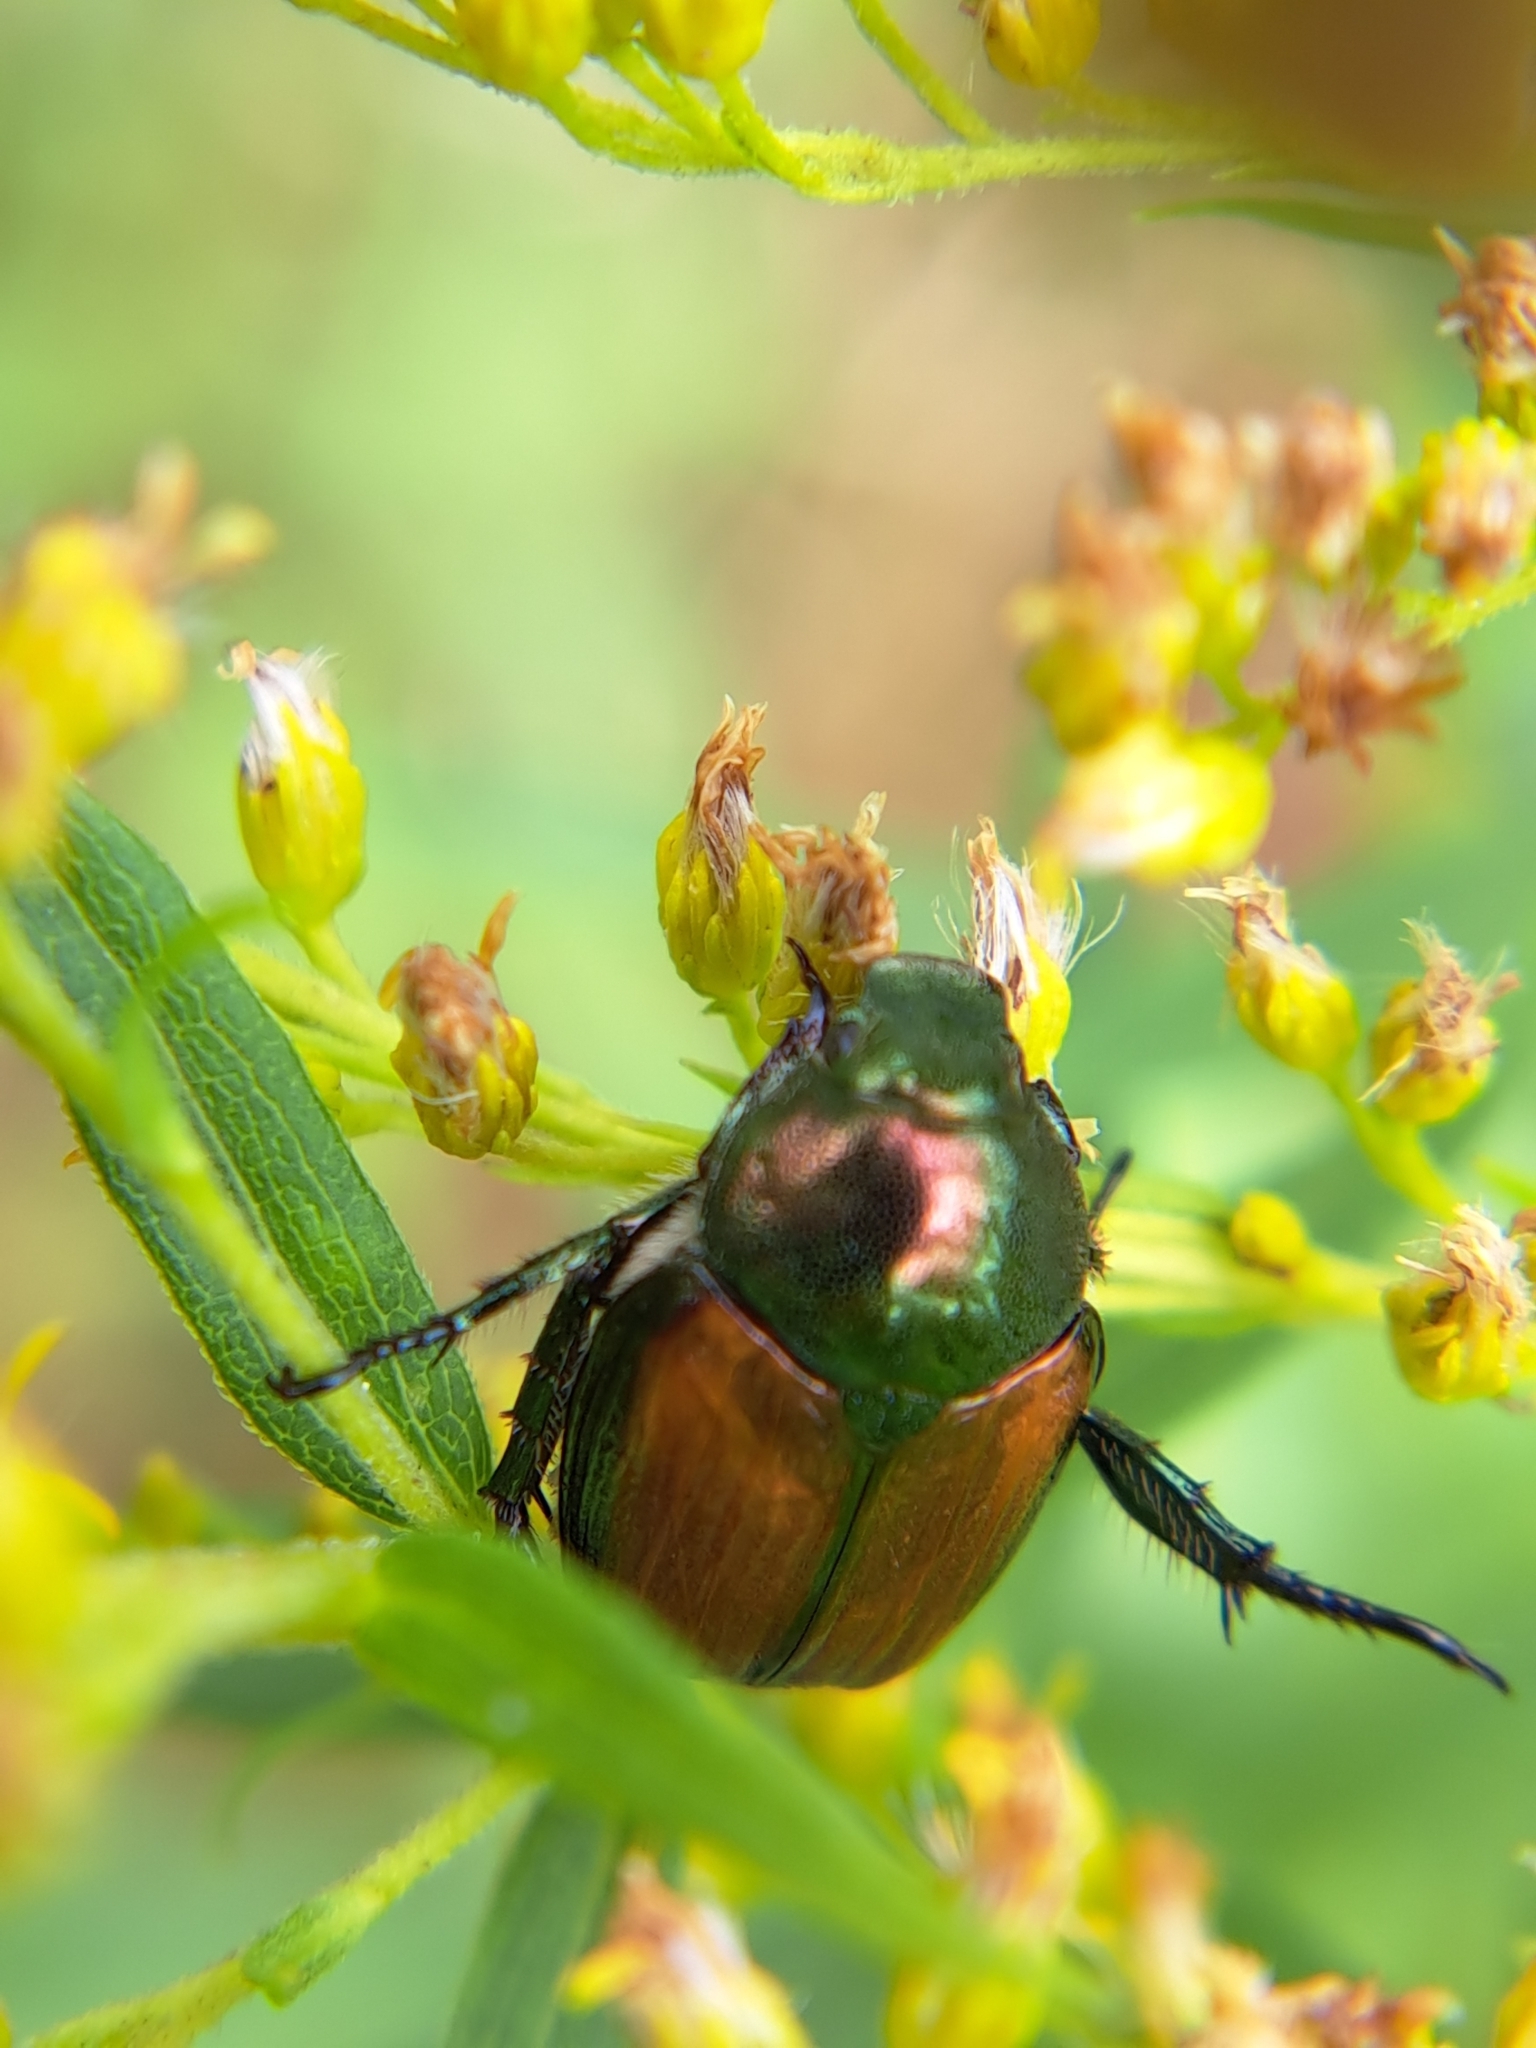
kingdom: Animalia
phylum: Arthropoda
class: Insecta
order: Coleoptera
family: Scarabaeidae
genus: Popillia
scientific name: Popillia japonica
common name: Japanese beetle
